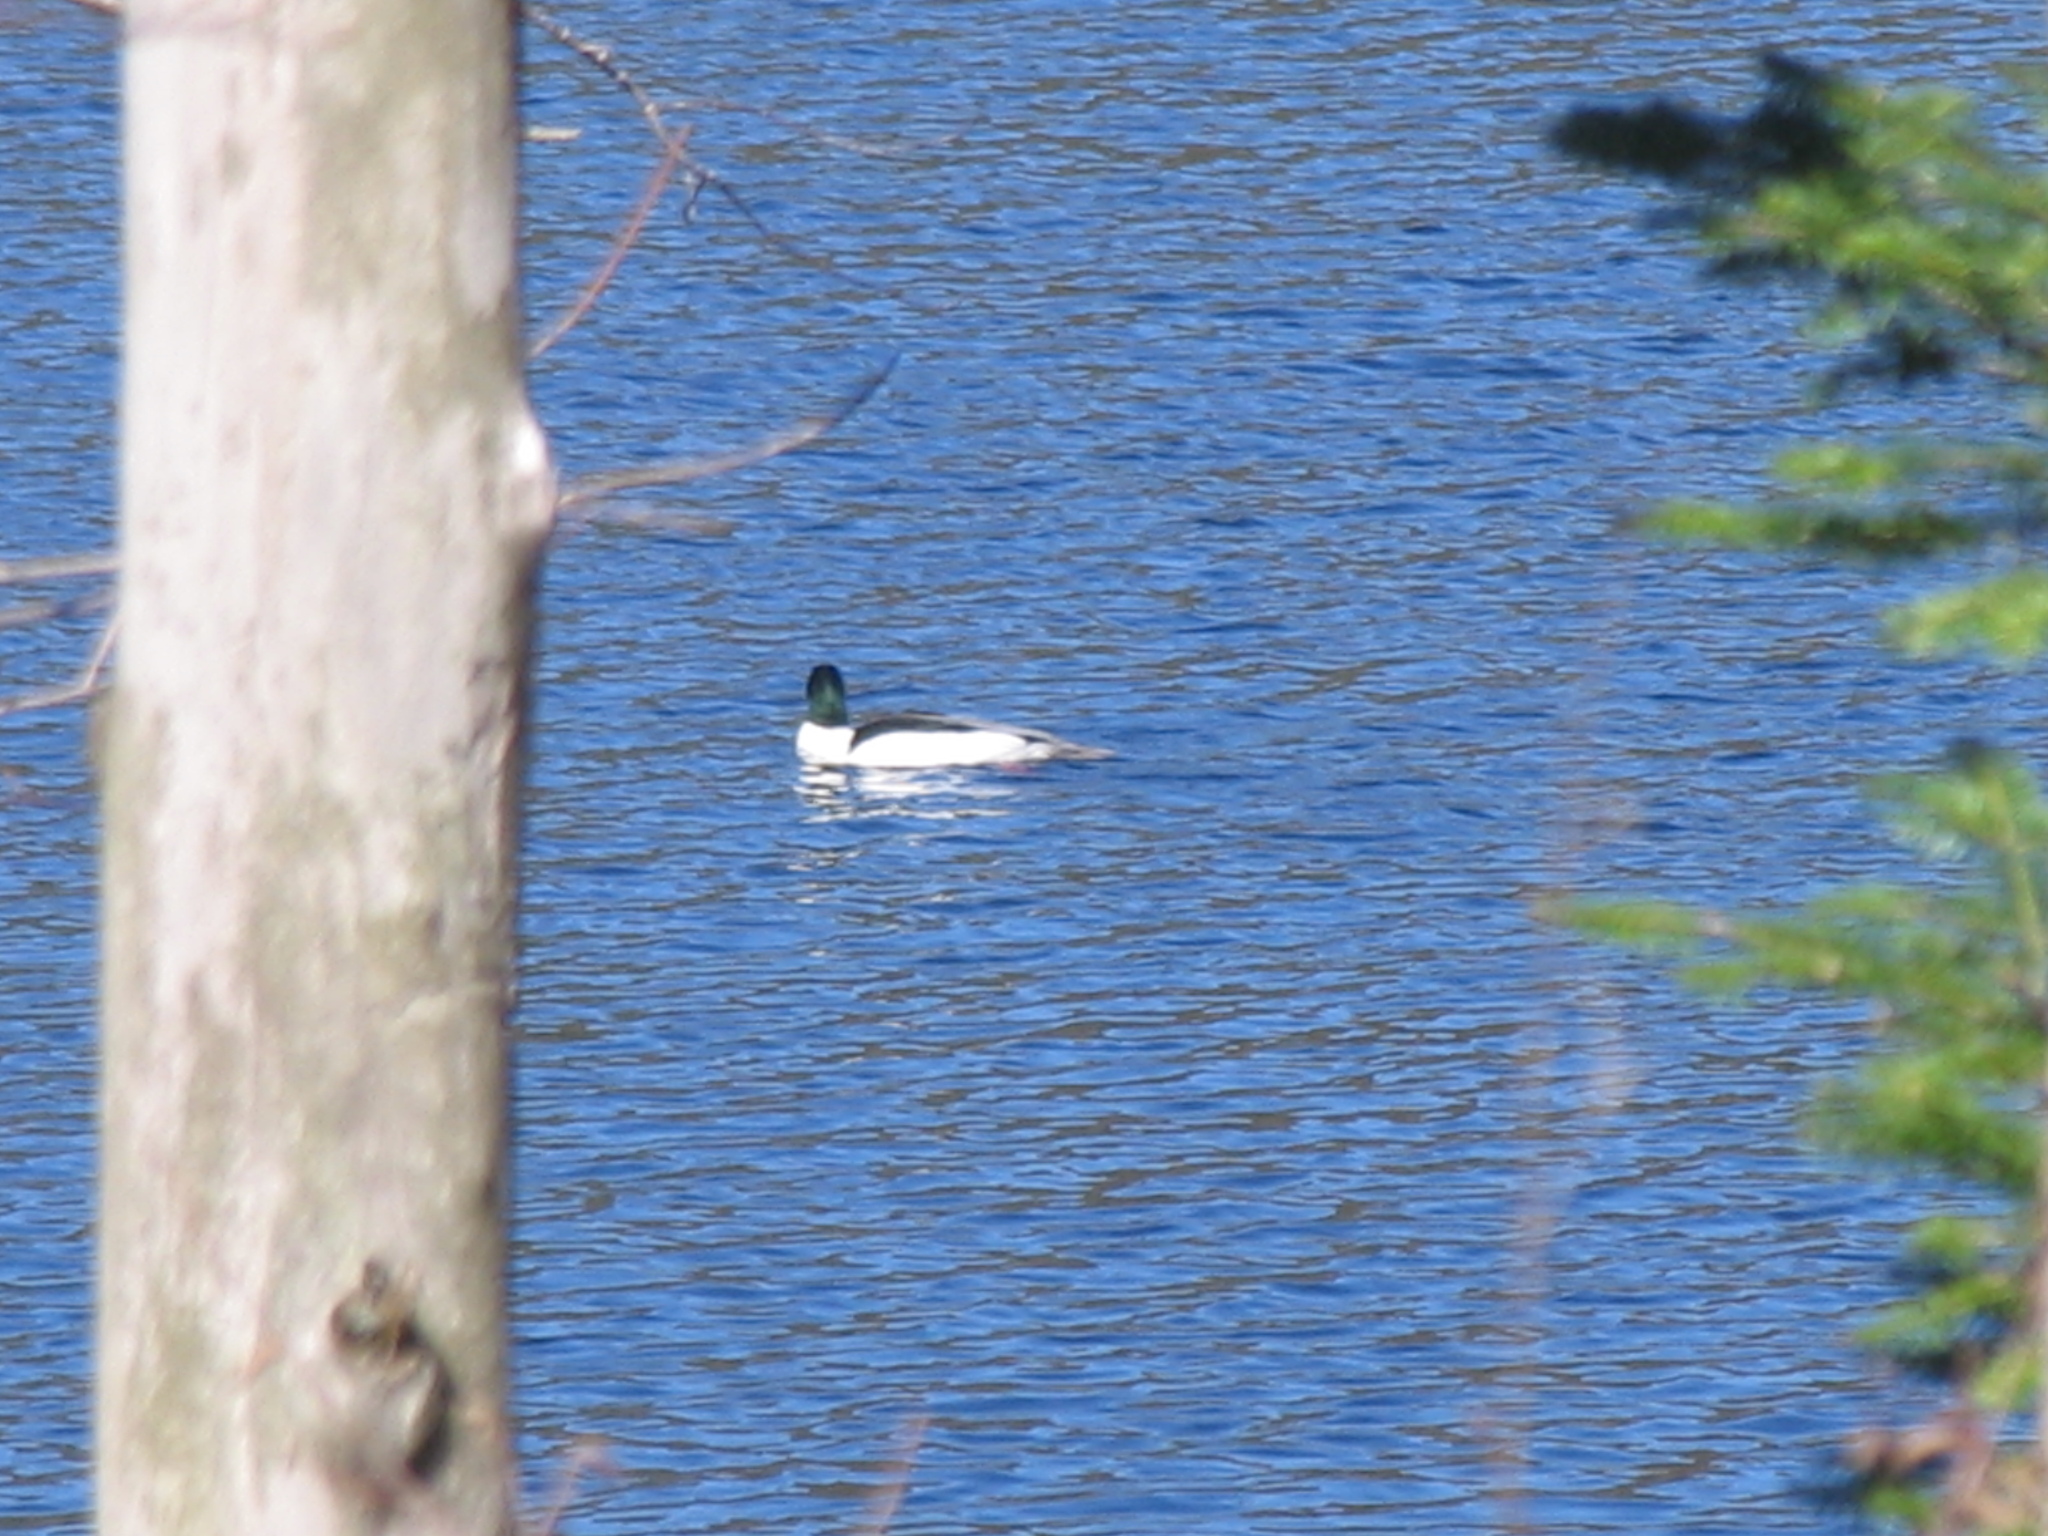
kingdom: Animalia
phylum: Chordata
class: Aves
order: Anseriformes
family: Anatidae
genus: Mergus
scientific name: Mergus merganser
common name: Common merganser
